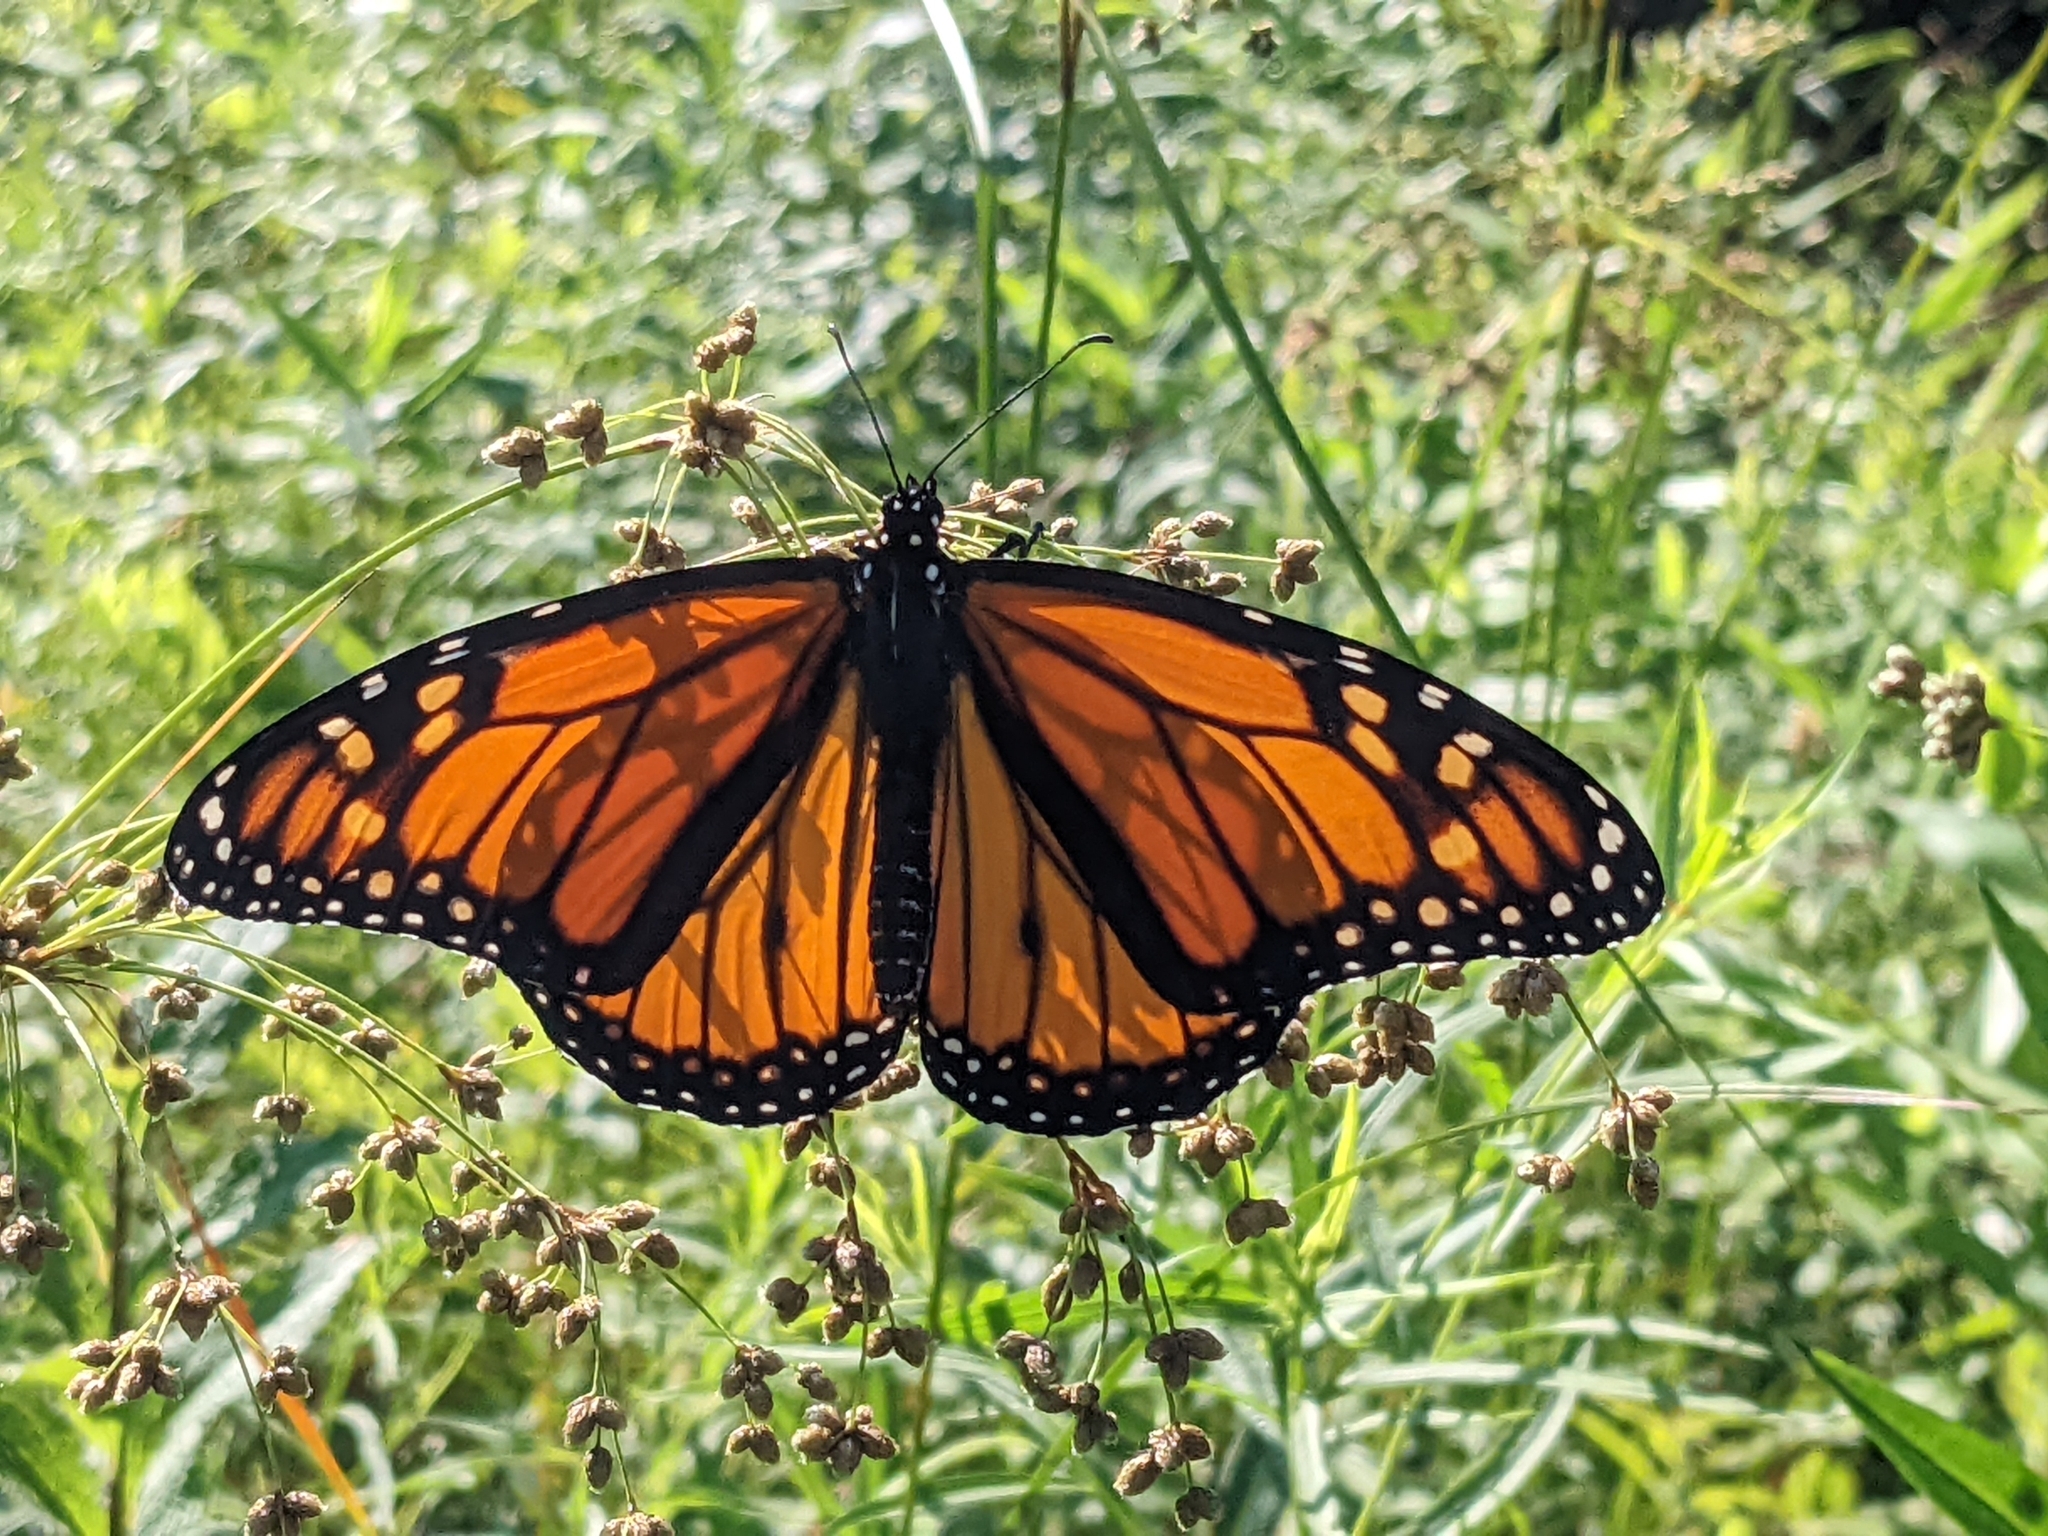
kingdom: Animalia
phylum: Arthropoda
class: Insecta
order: Lepidoptera
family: Nymphalidae
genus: Danaus
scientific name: Danaus plexippus
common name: Monarch
